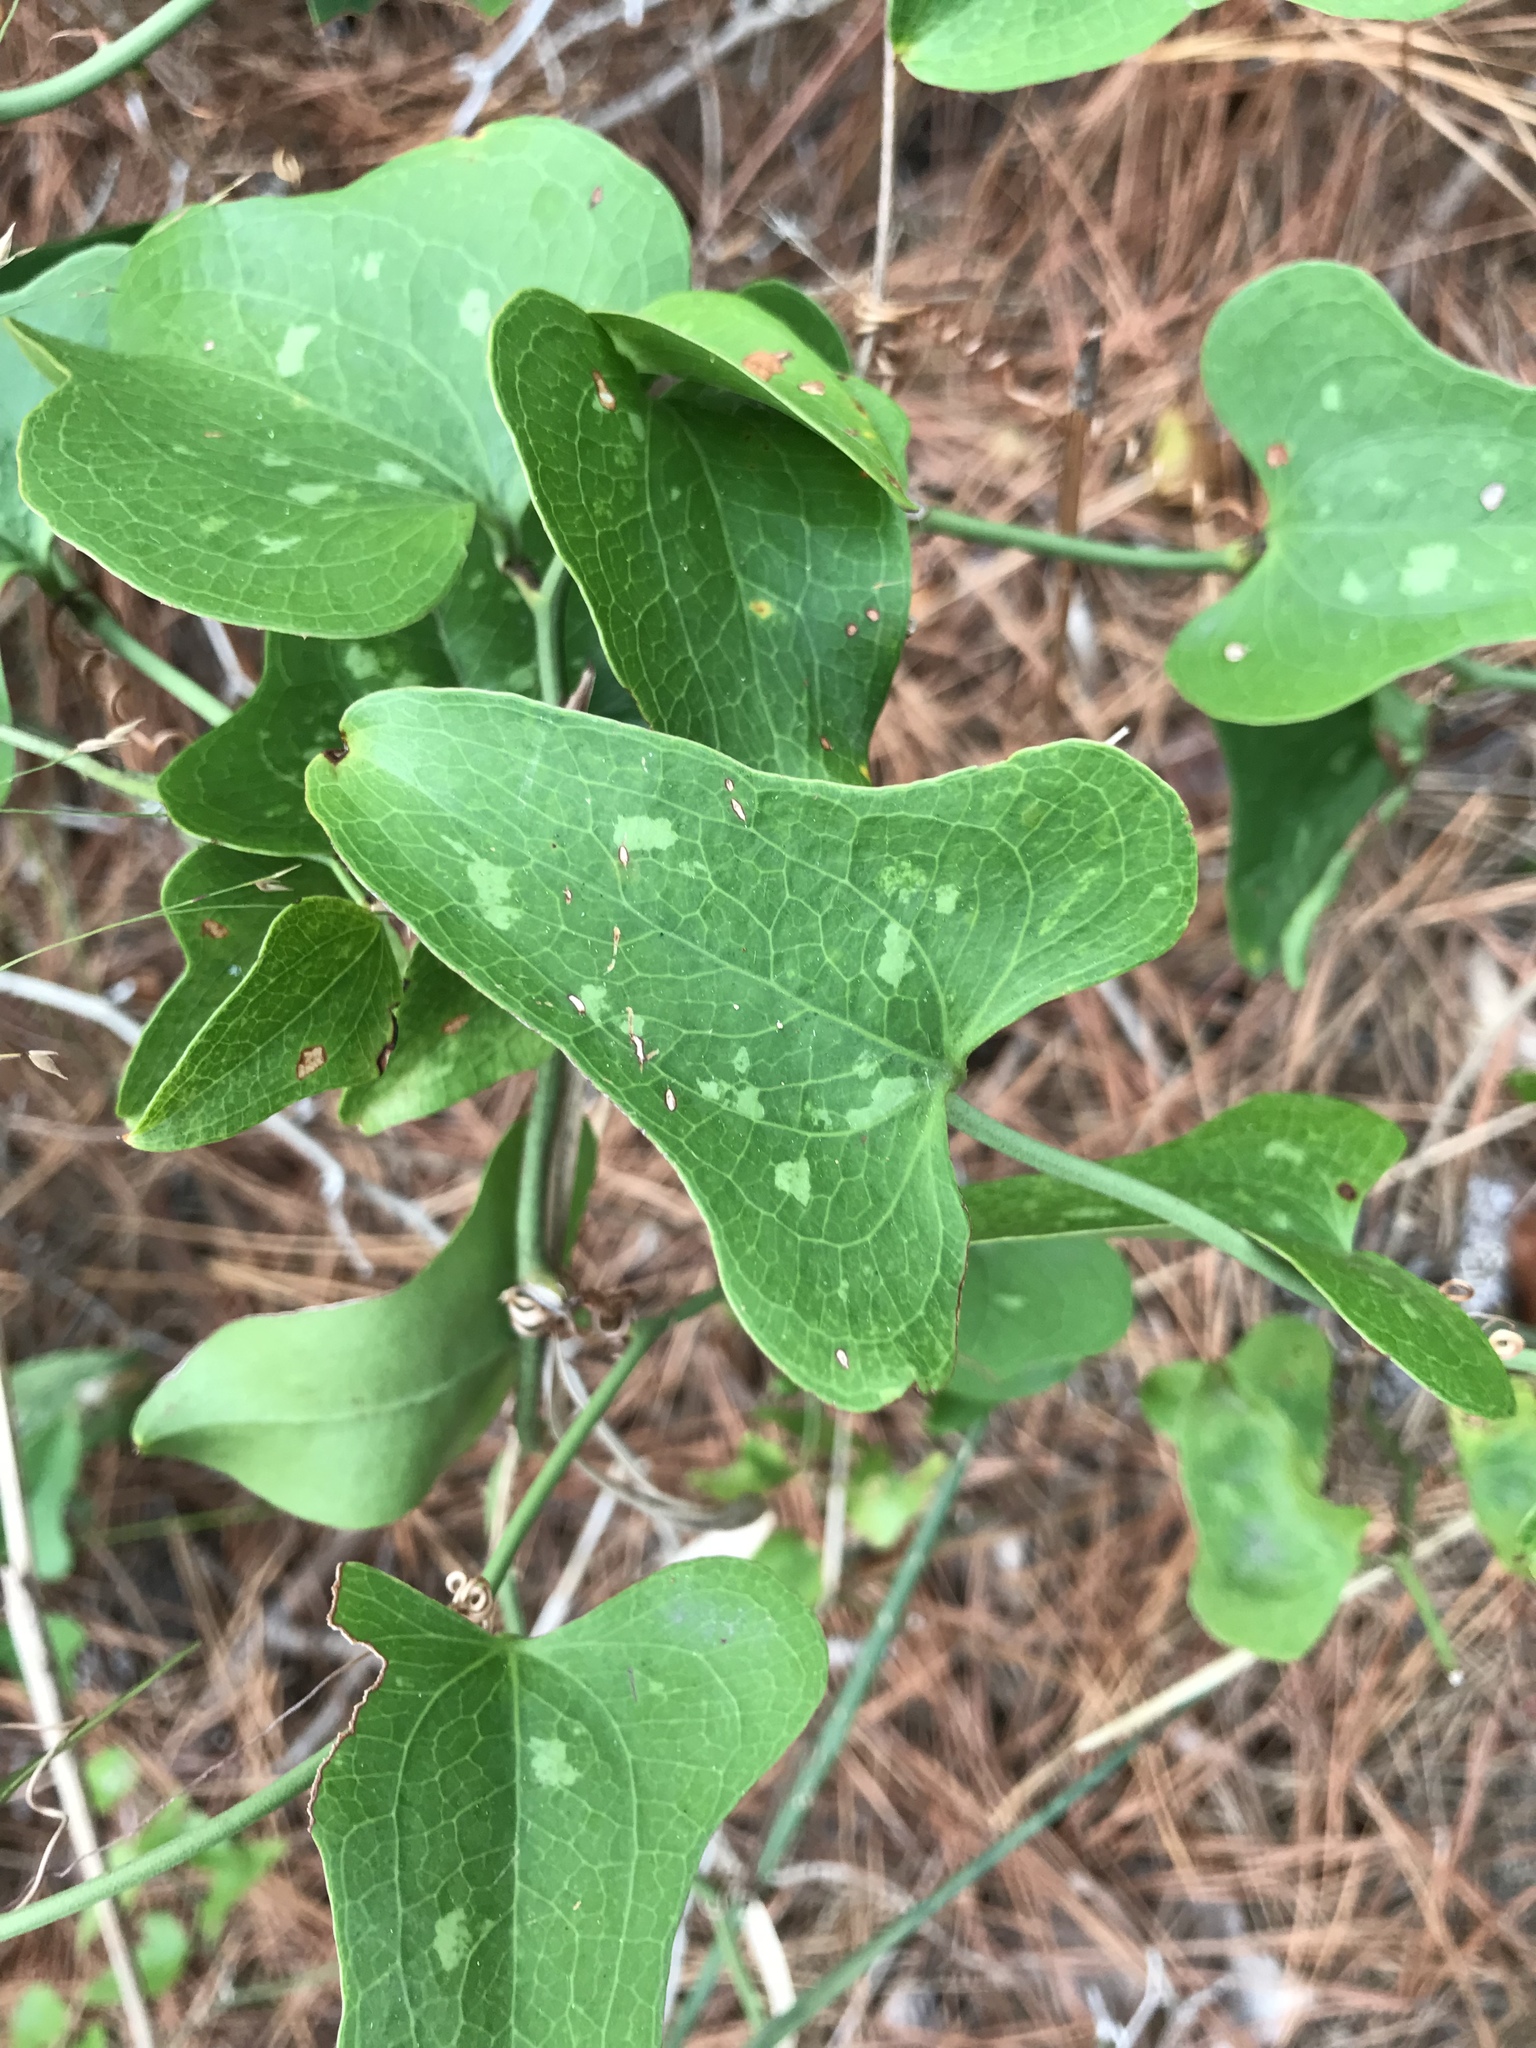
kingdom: Plantae
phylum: Tracheophyta
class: Liliopsida
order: Liliales
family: Smilacaceae
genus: Smilax
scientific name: Smilax bona-nox
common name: Catbrier
